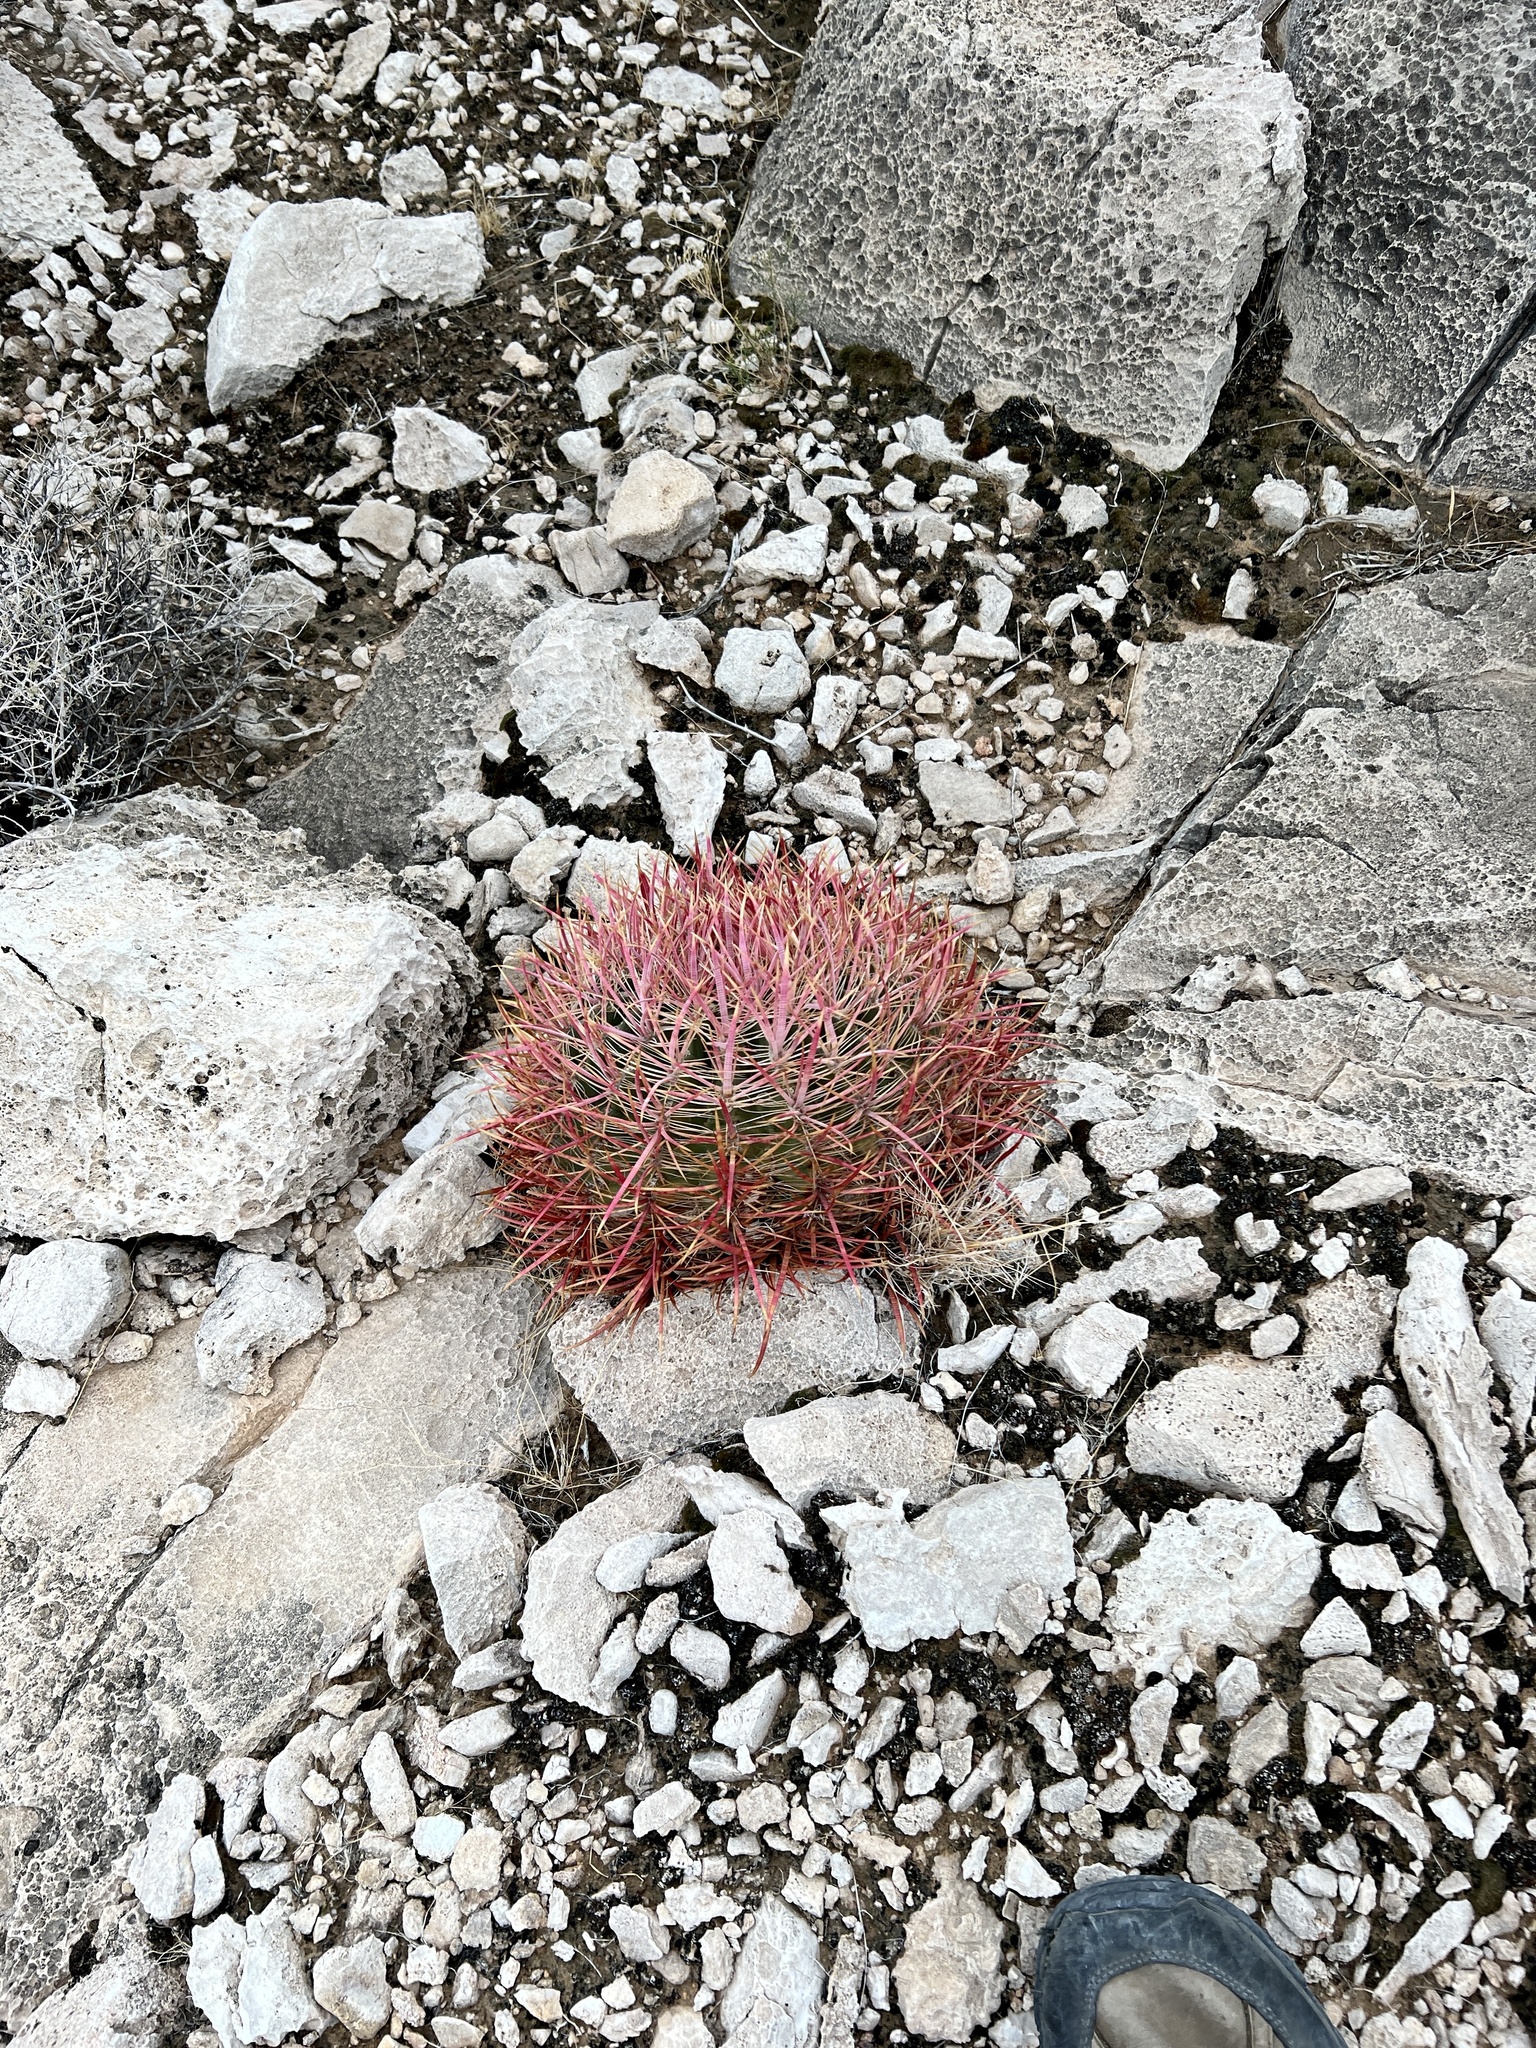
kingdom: Plantae
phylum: Tracheophyta
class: Magnoliopsida
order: Caryophyllales
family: Cactaceae
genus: Ferocactus
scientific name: Ferocactus cylindraceus
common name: California barrel cactus
